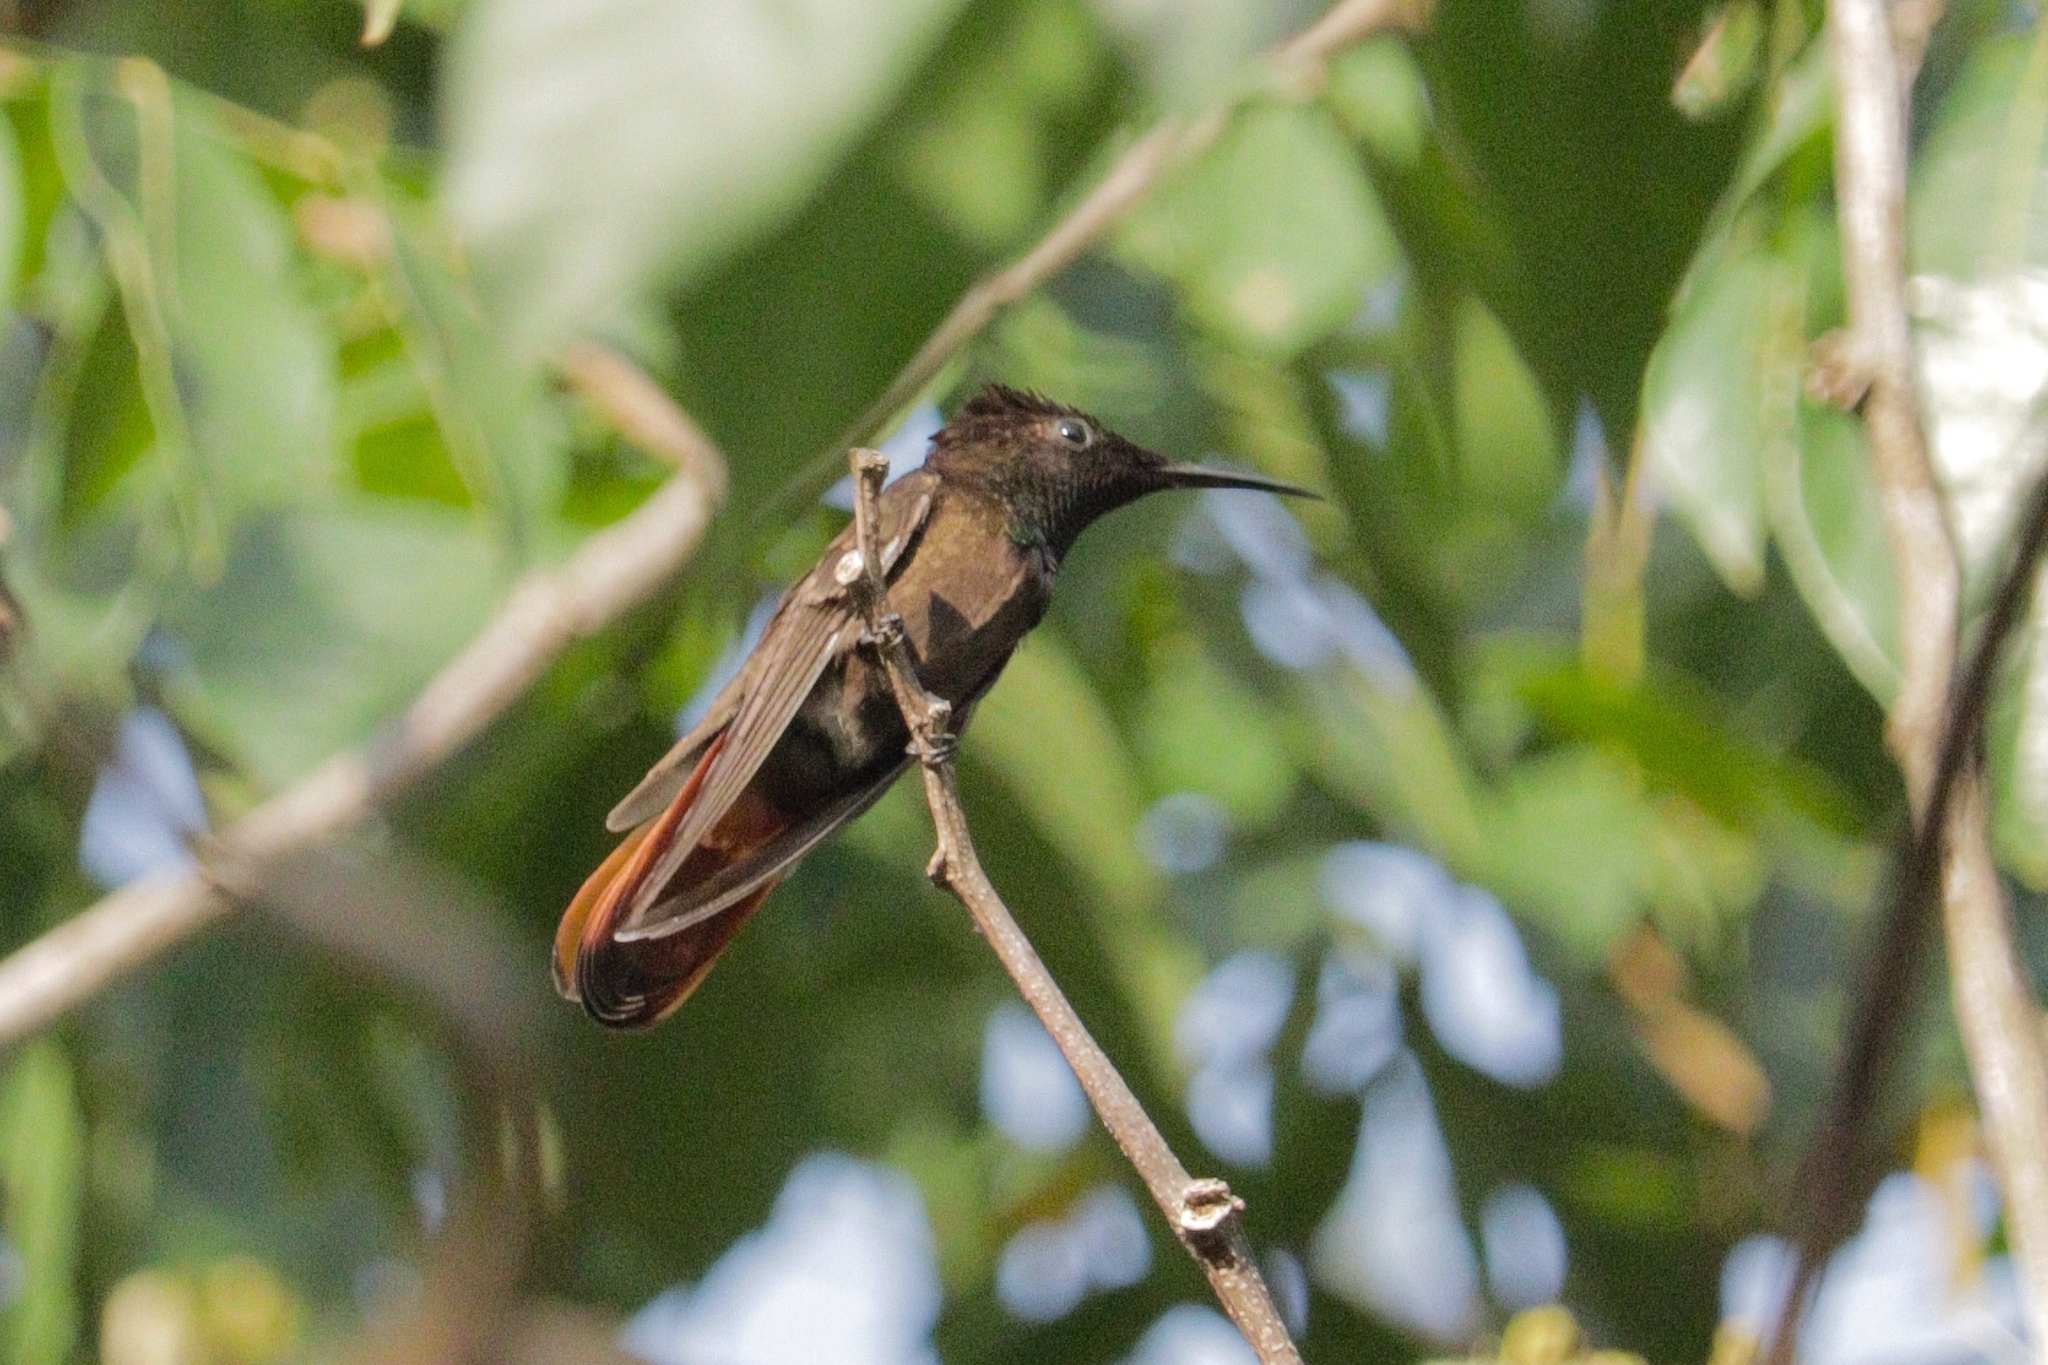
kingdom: Animalia
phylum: Chordata
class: Aves
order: Apodiformes
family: Trochilidae
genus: Chrysolampis
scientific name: Chrysolampis mosquitus
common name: Ruby-topaz hummingbird
